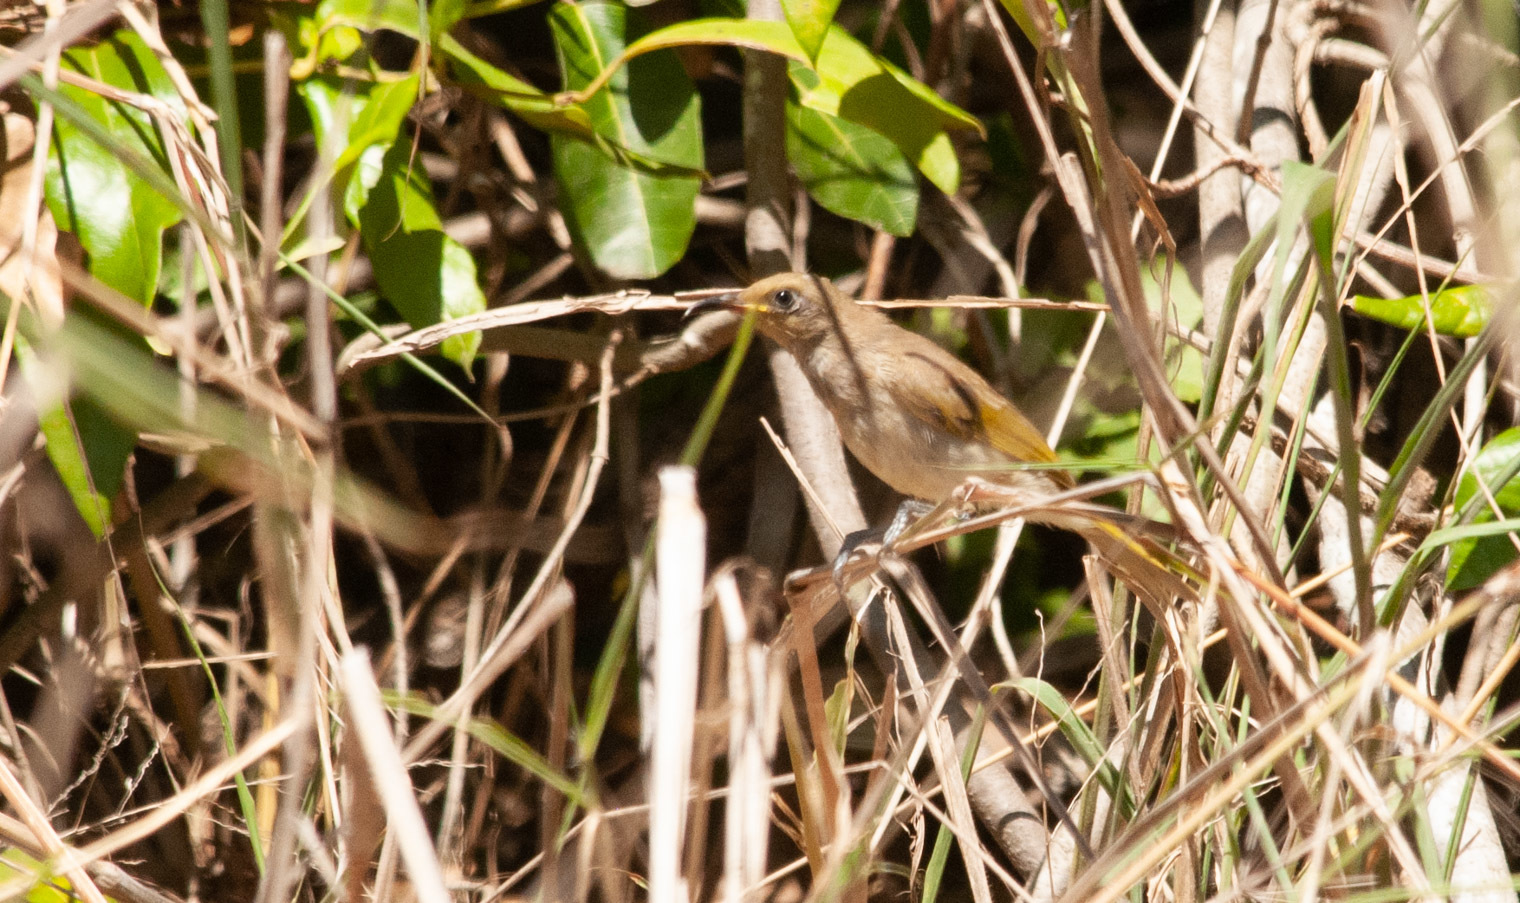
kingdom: Animalia
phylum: Chordata
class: Aves
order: Passeriformes
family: Meliphagidae
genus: Lichmera
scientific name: Lichmera indistincta
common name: Brown honeyeater
